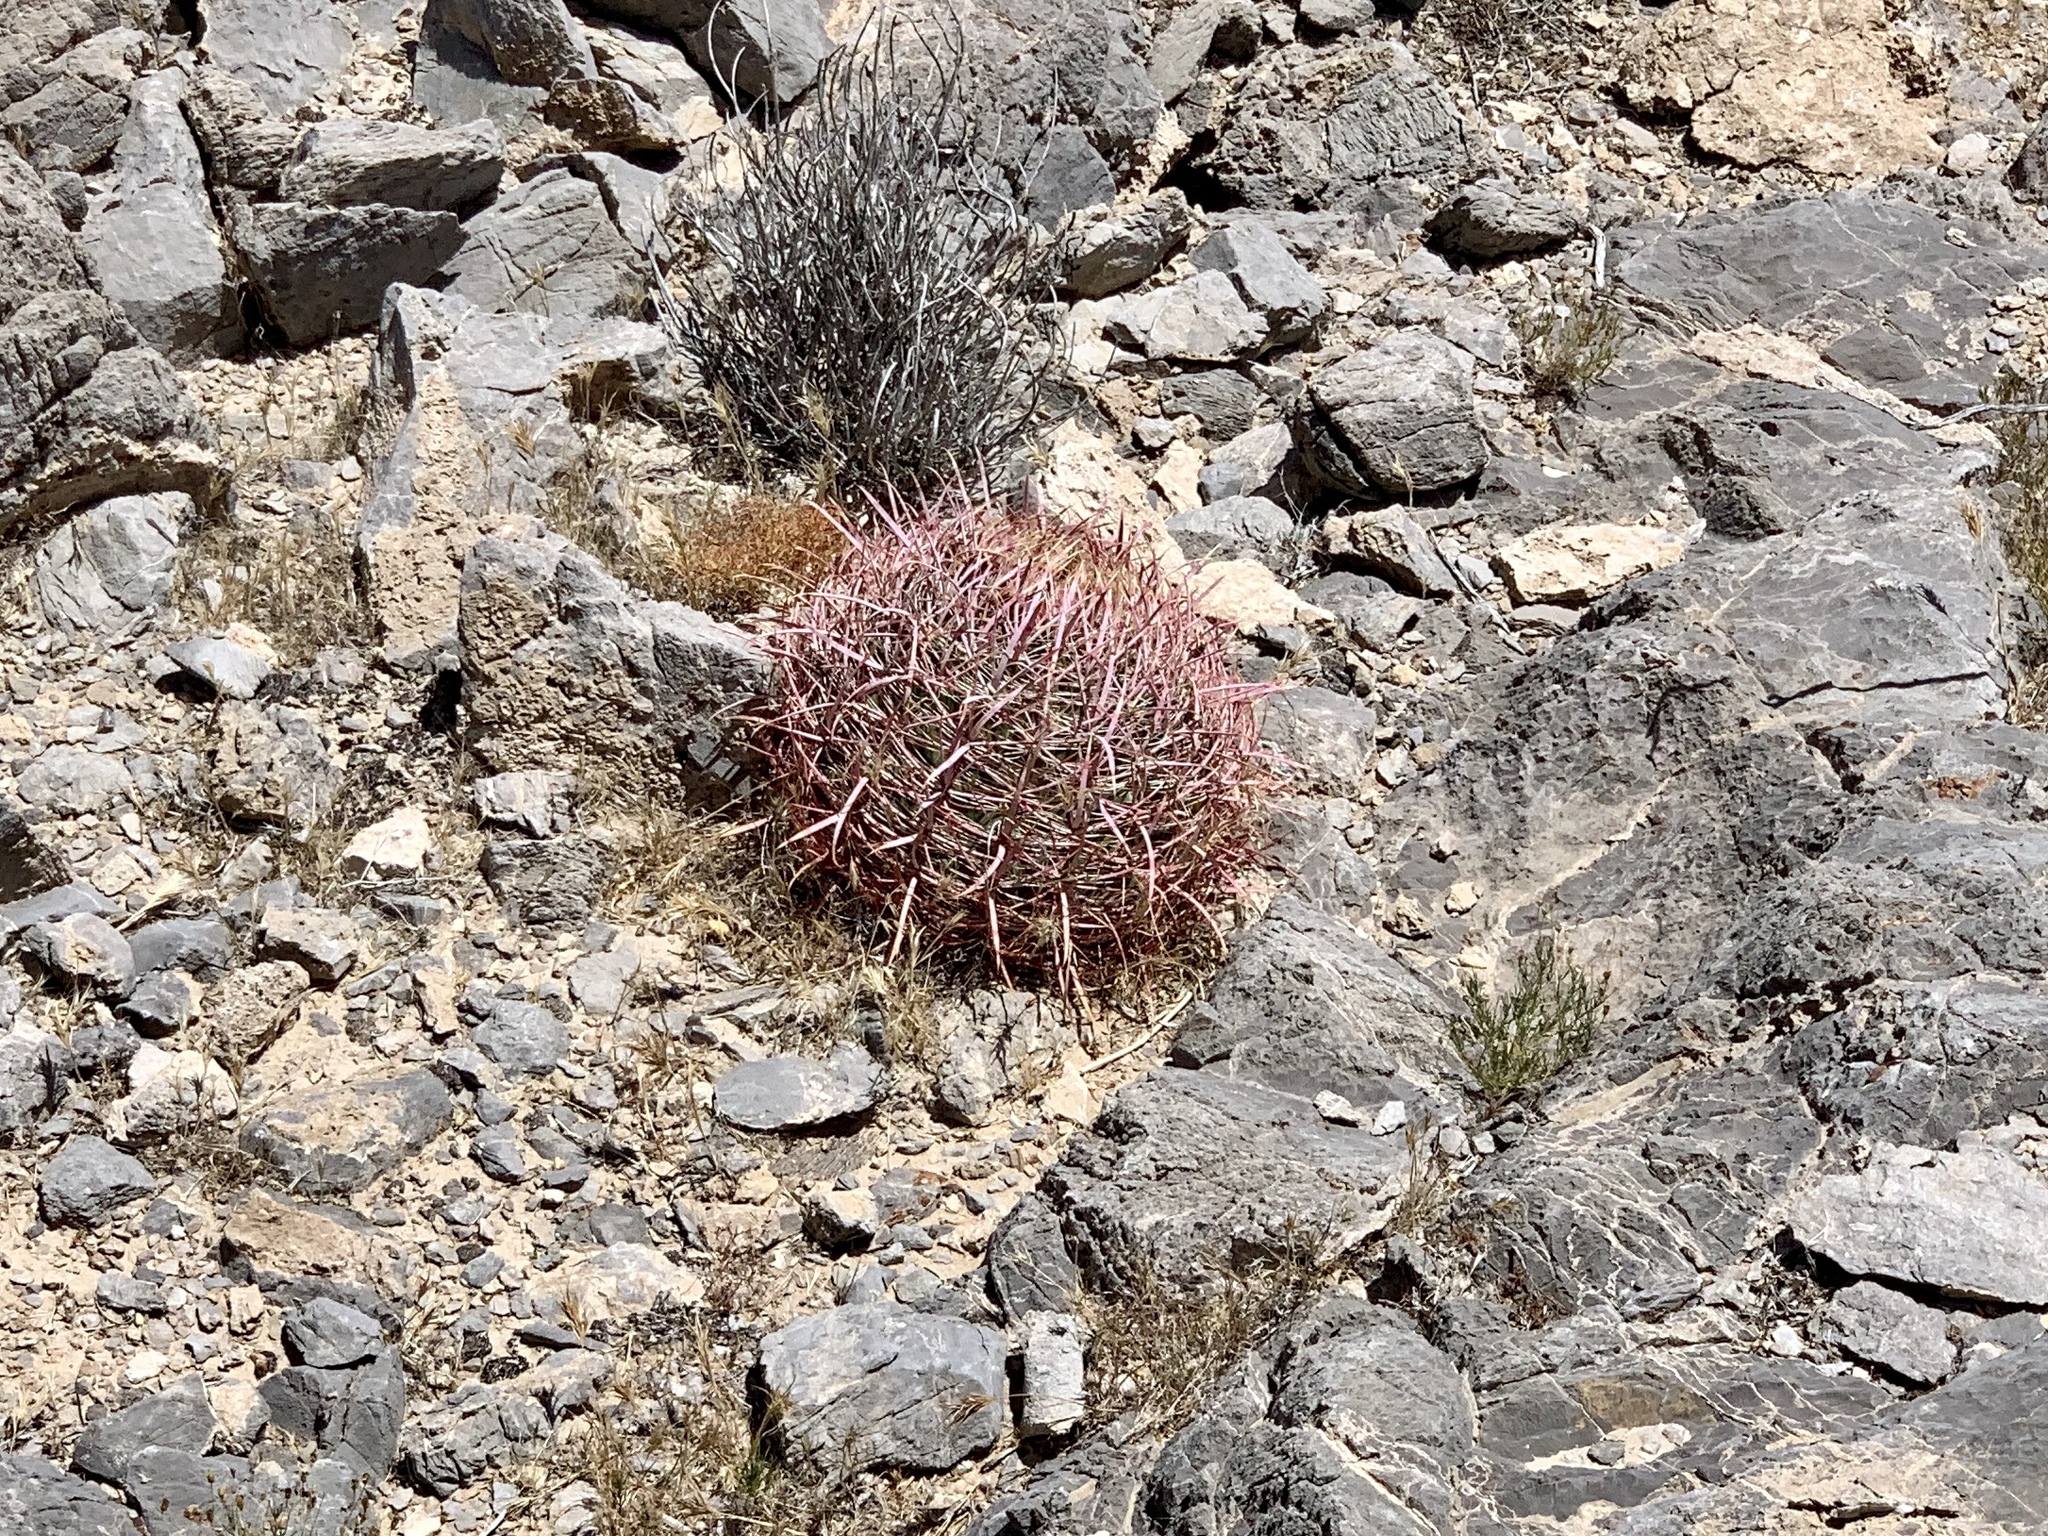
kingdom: Plantae
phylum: Tracheophyta
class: Magnoliopsida
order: Caryophyllales
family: Cactaceae
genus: Ferocactus
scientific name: Ferocactus cylindraceus
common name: California barrel cactus
